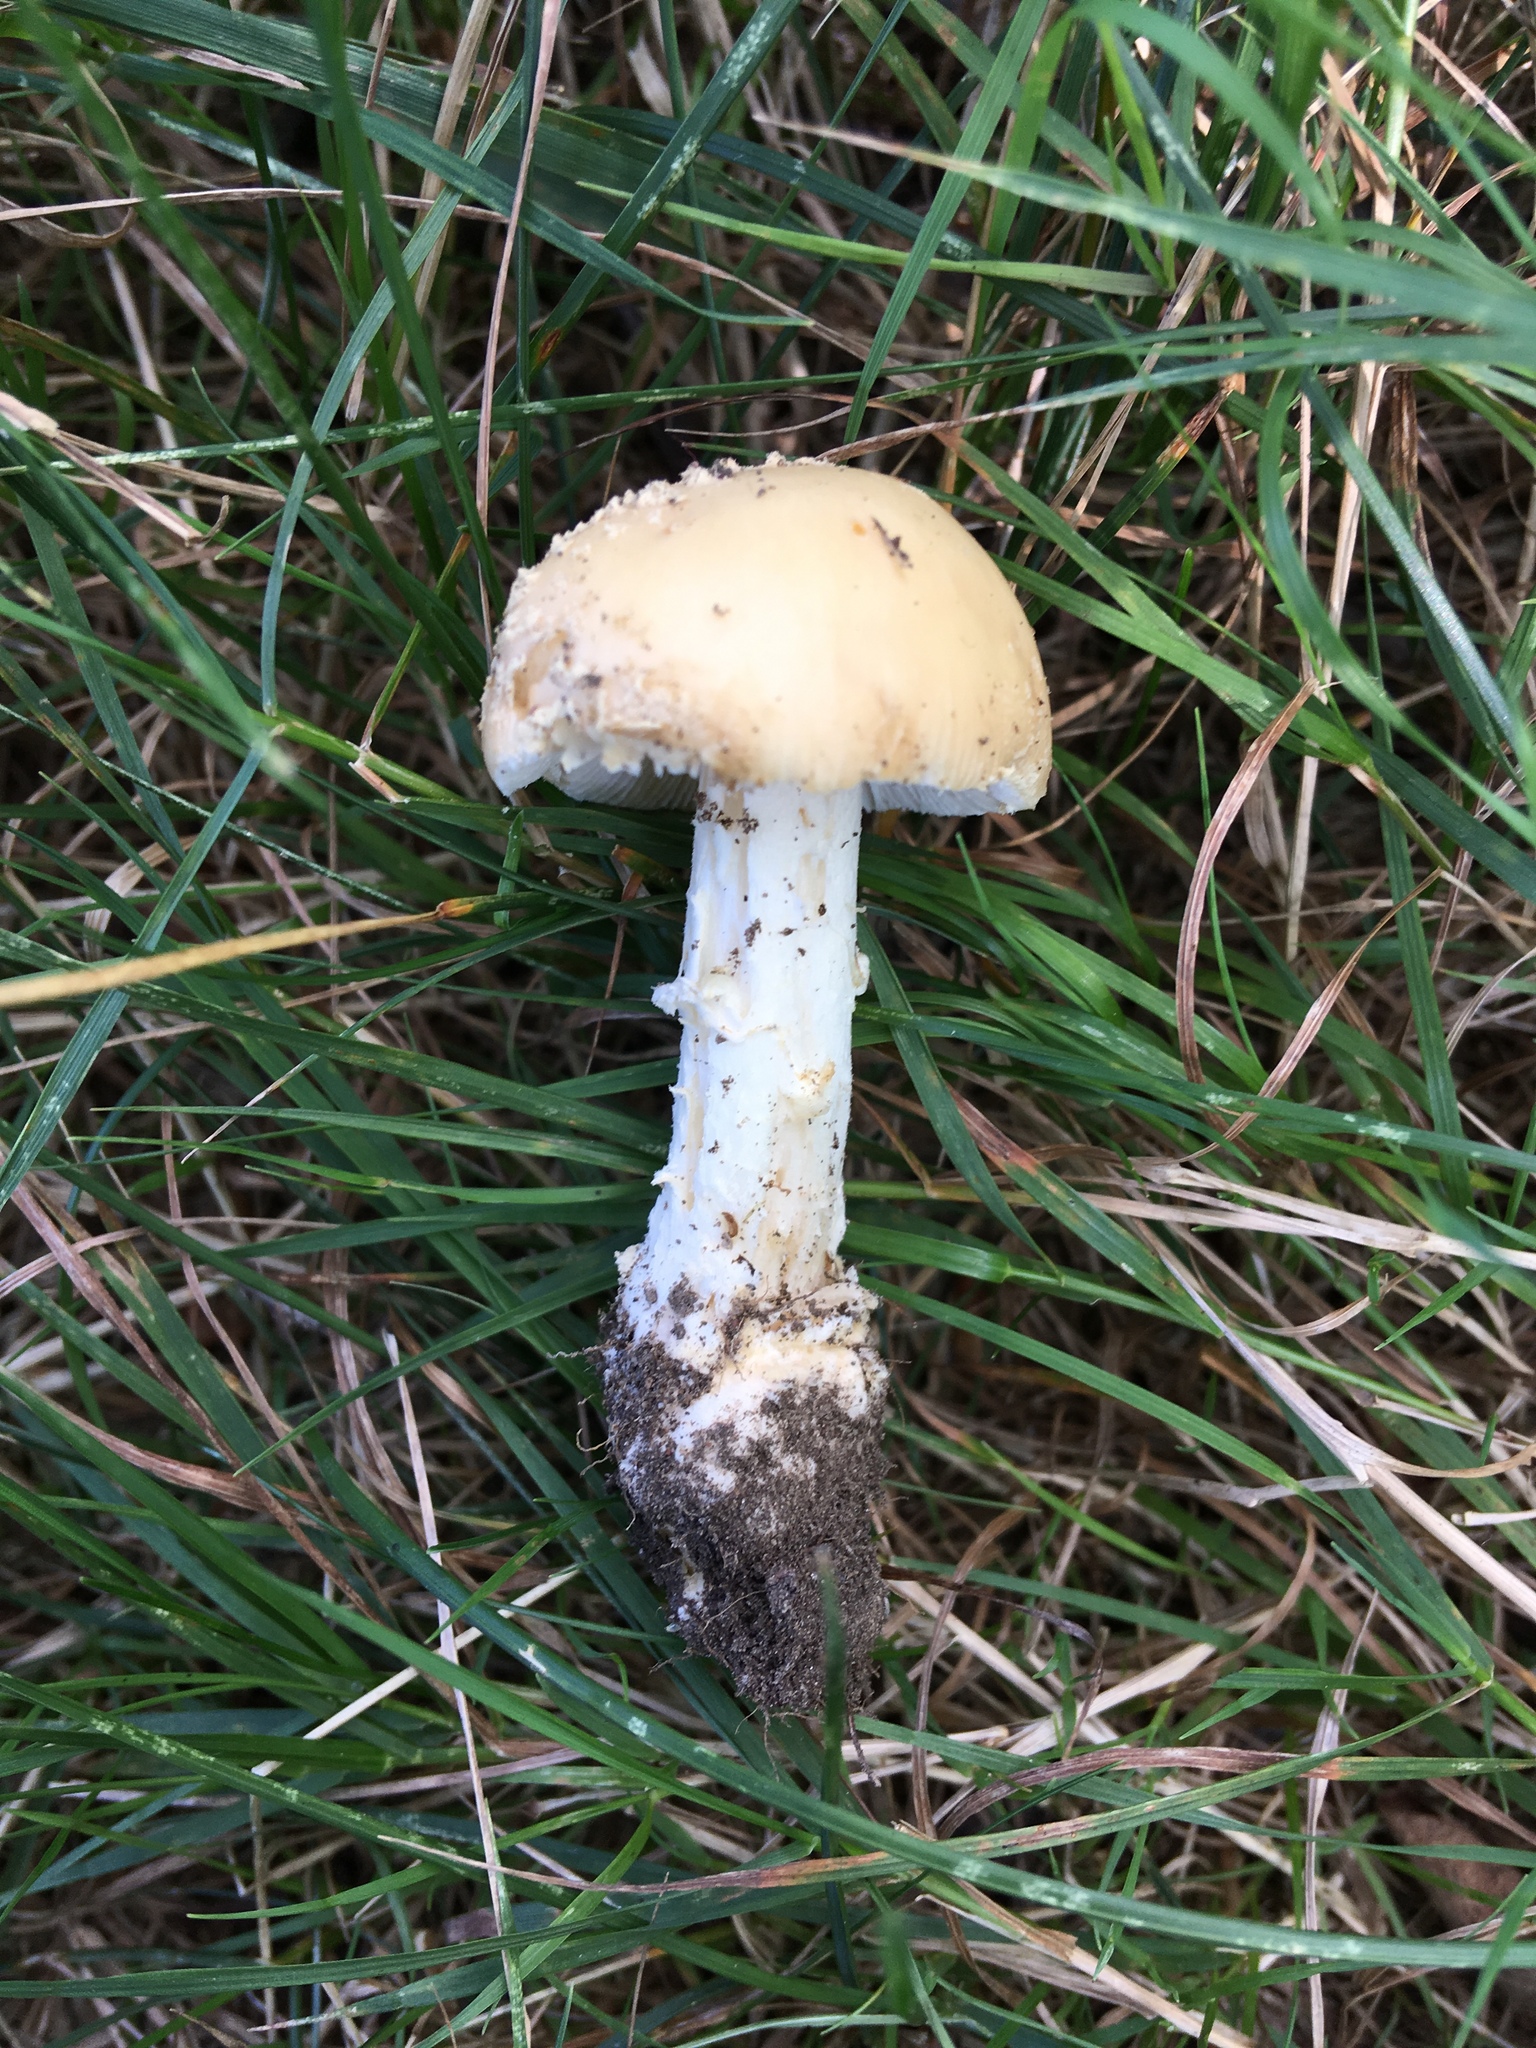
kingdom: Fungi
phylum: Basidiomycota
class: Agaricomycetes
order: Agaricales
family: Amanitaceae
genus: Amanita
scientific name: Amanita crenulata
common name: Poison champagne amanita
